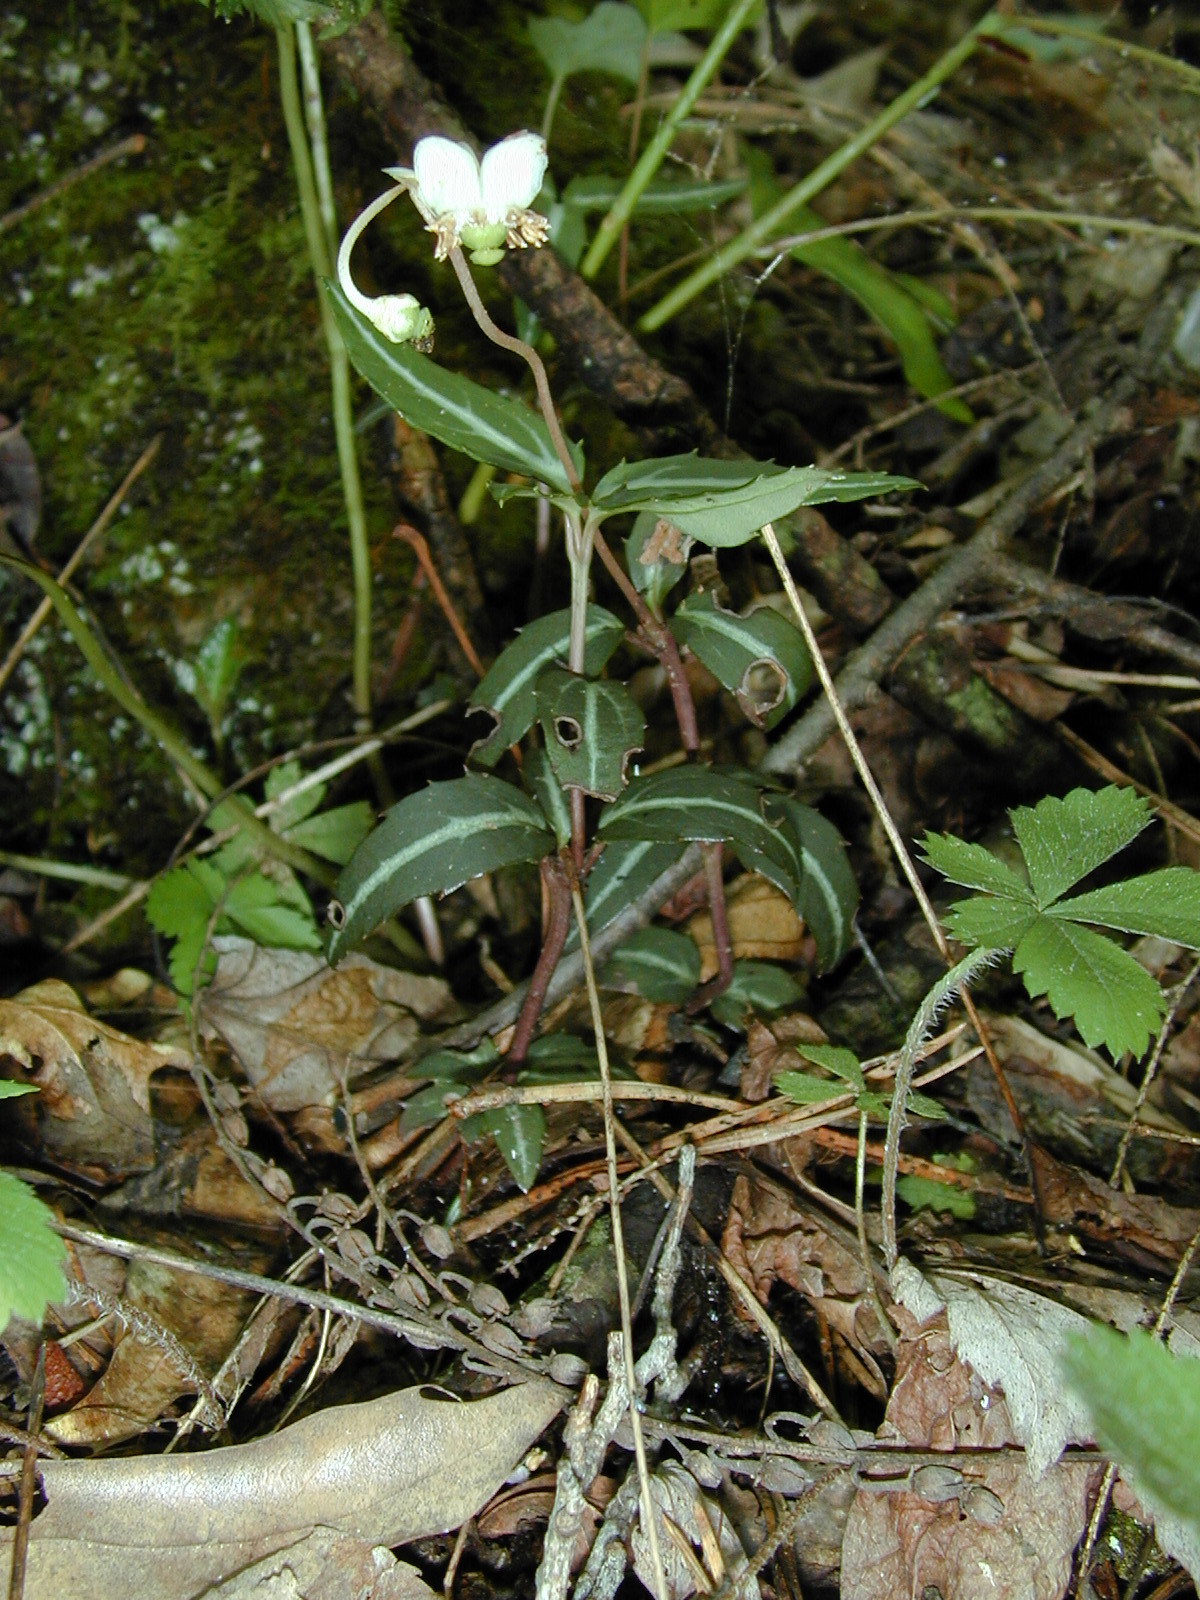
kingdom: Plantae
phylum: Tracheophyta
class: Magnoliopsida
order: Ericales
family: Ericaceae
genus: Chimaphila
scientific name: Chimaphila maculata
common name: Spotted pipsissewa
